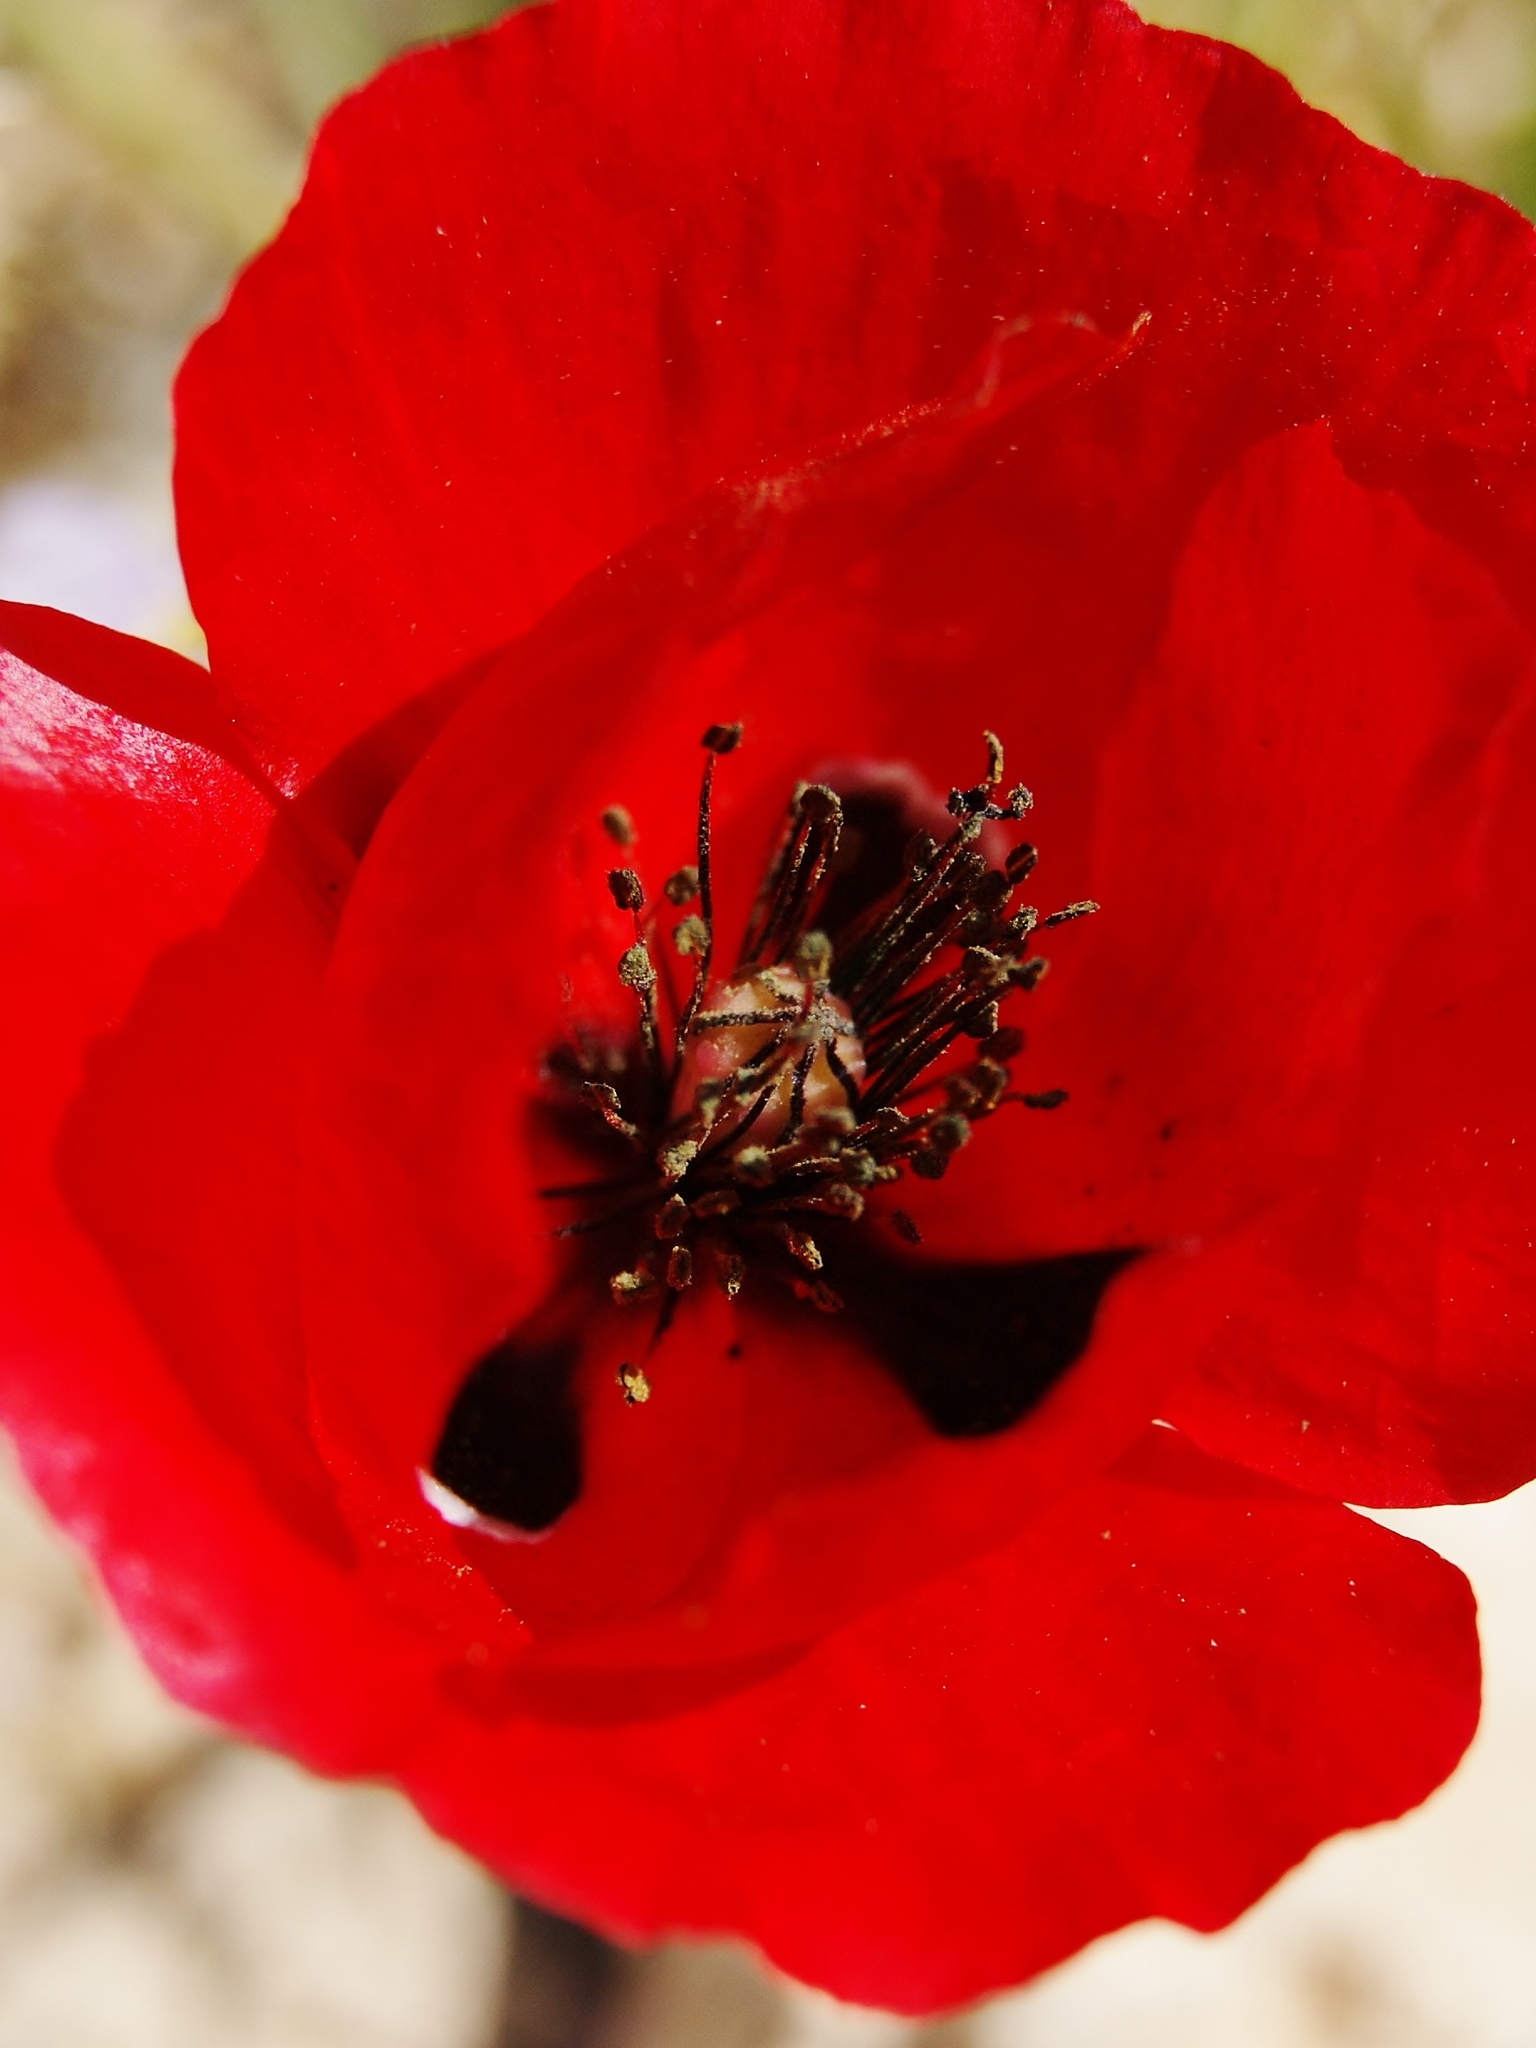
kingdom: Plantae
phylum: Tracheophyta
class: Magnoliopsida
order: Ranunculales
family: Papaveraceae
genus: Papaver
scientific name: Papaver umbonatum
